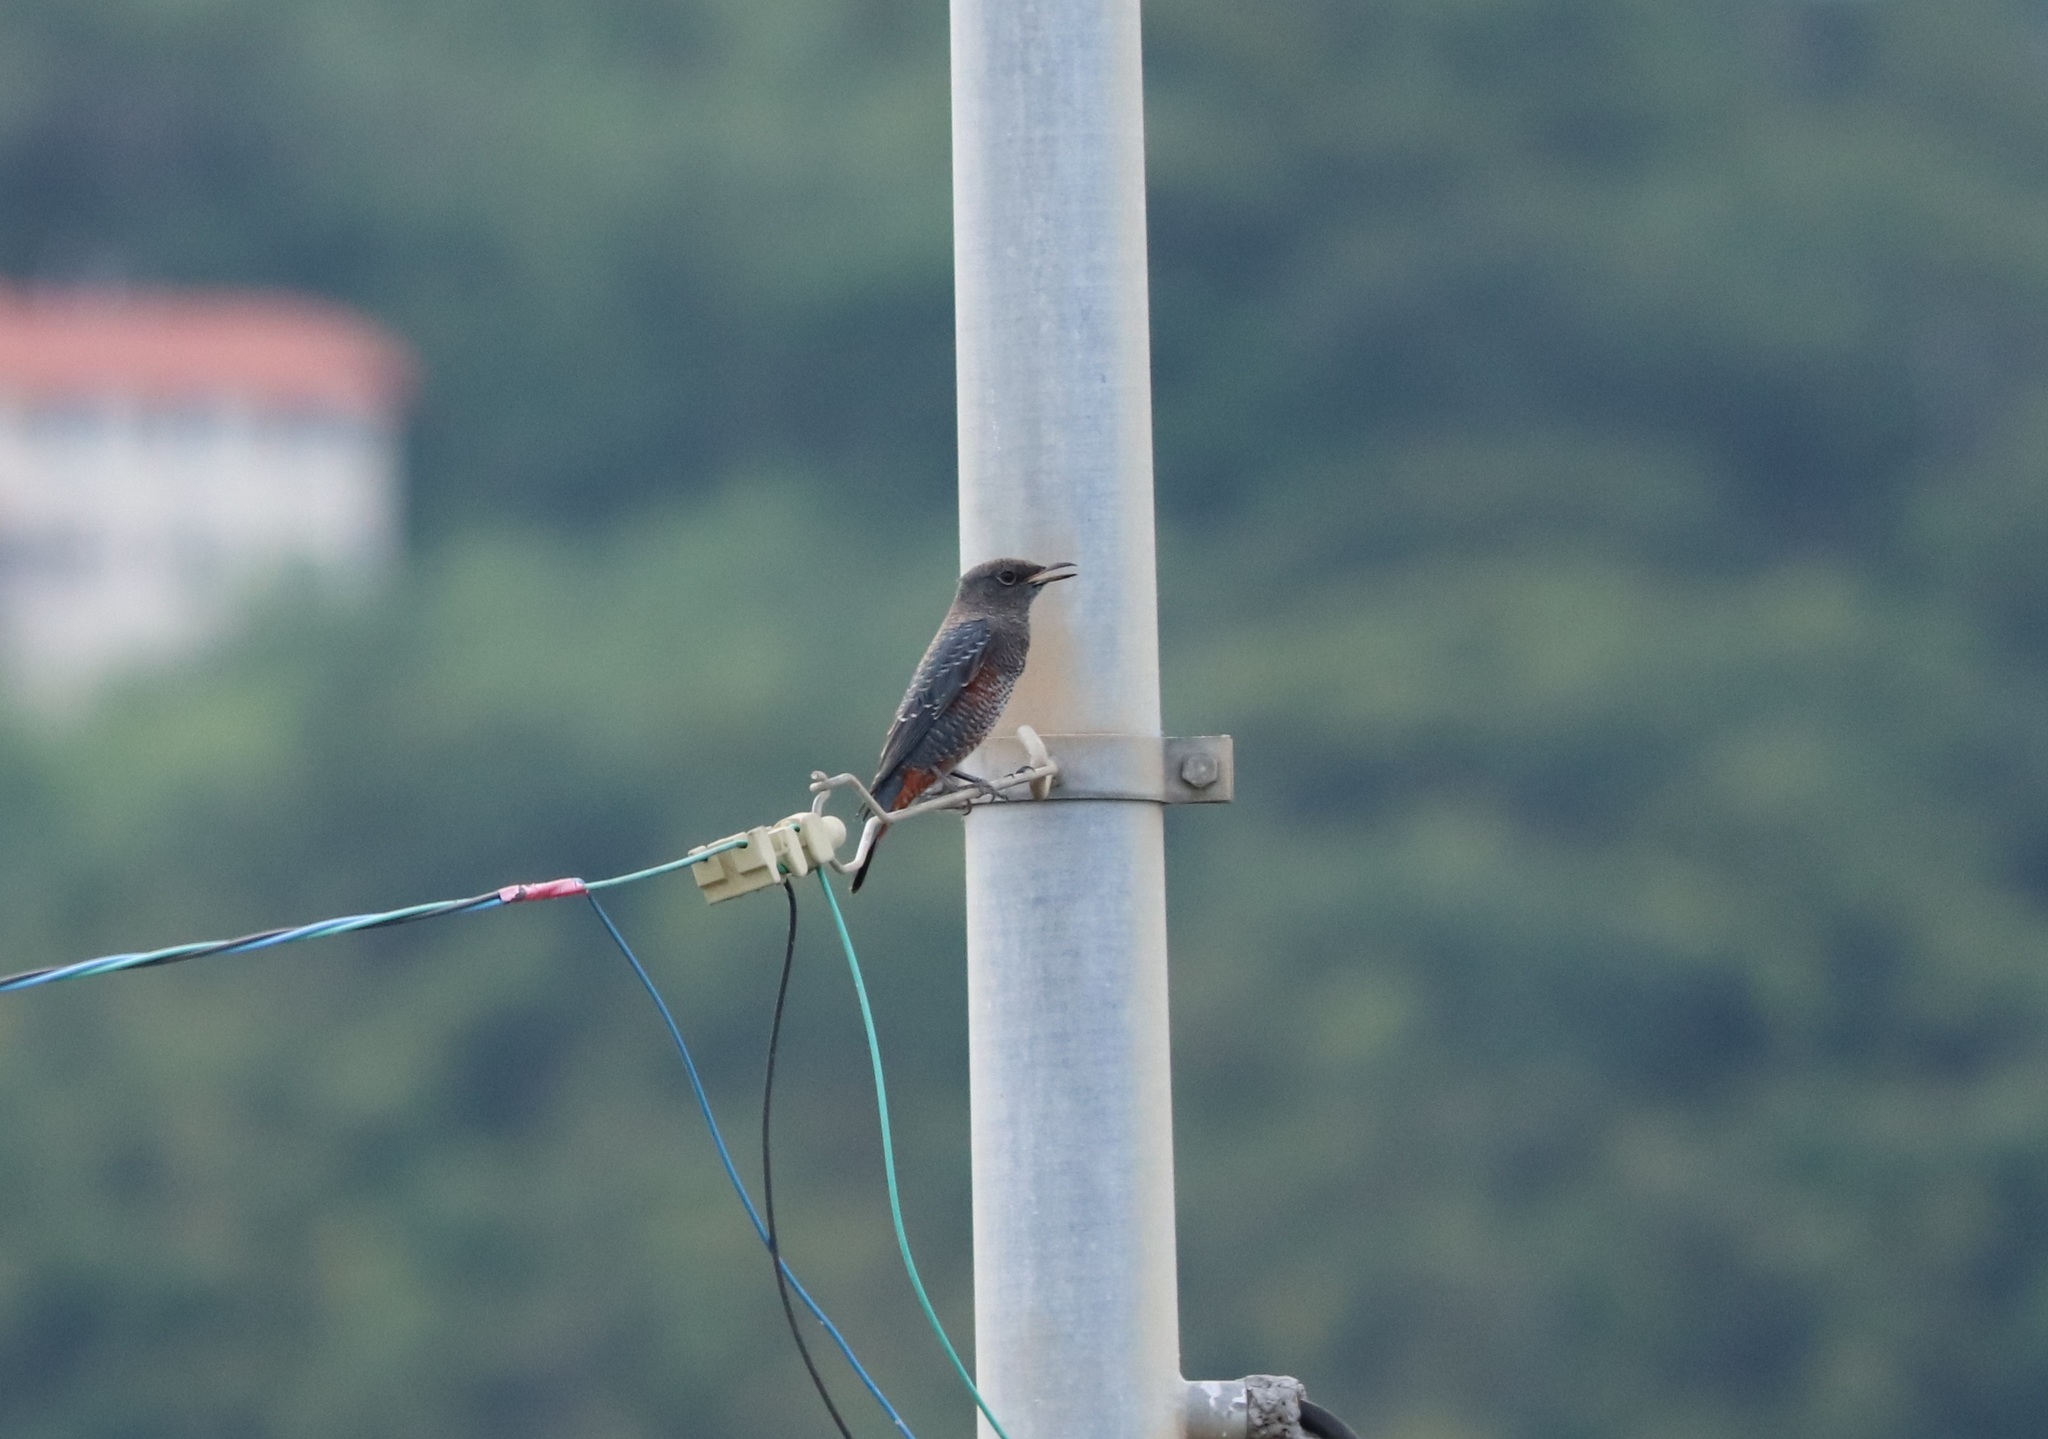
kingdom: Animalia
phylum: Chordata
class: Aves
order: Passeriformes
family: Muscicapidae
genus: Monticola
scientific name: Monticola solitarius
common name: Blue rock thrush
